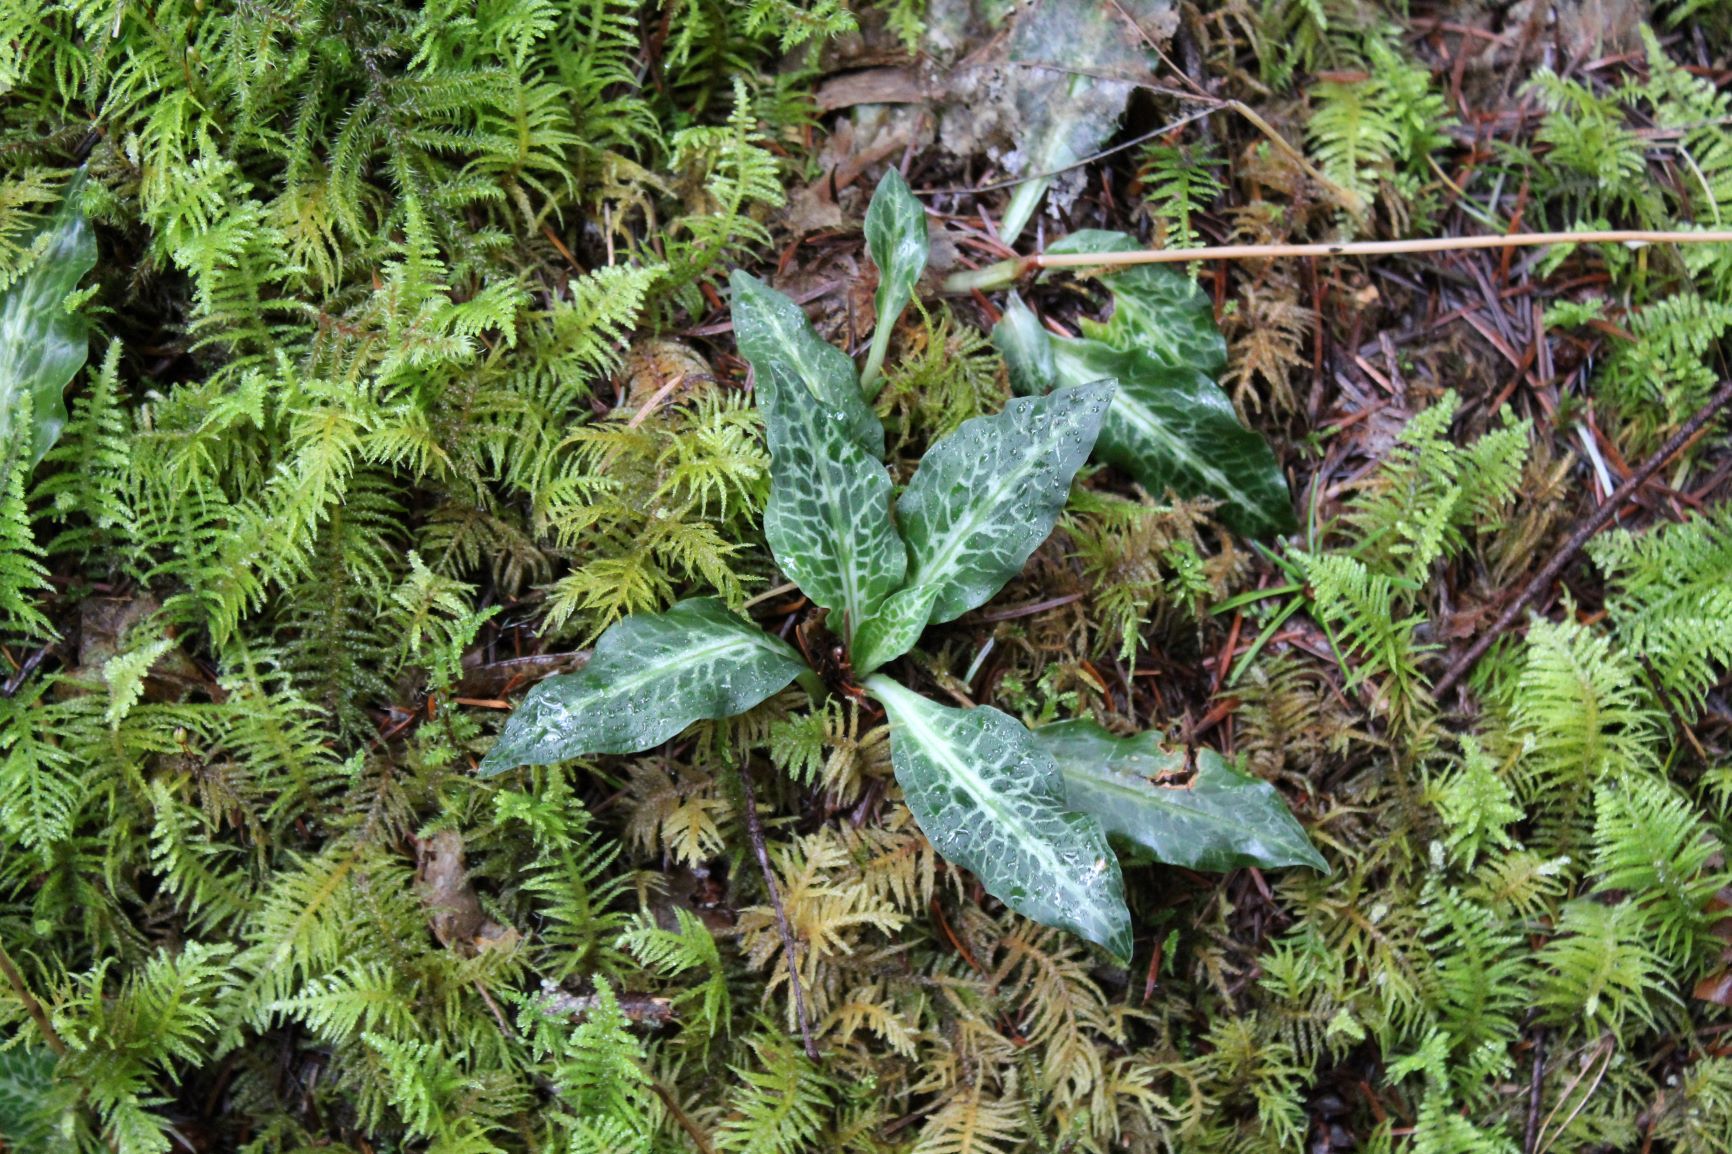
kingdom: Plantae
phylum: Tracheophyta
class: Liliopsida
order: Asparagales
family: Orchidaceae
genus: Goodyera
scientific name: Goodyera oblongifolia
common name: Giant rattlesnake-plantain
